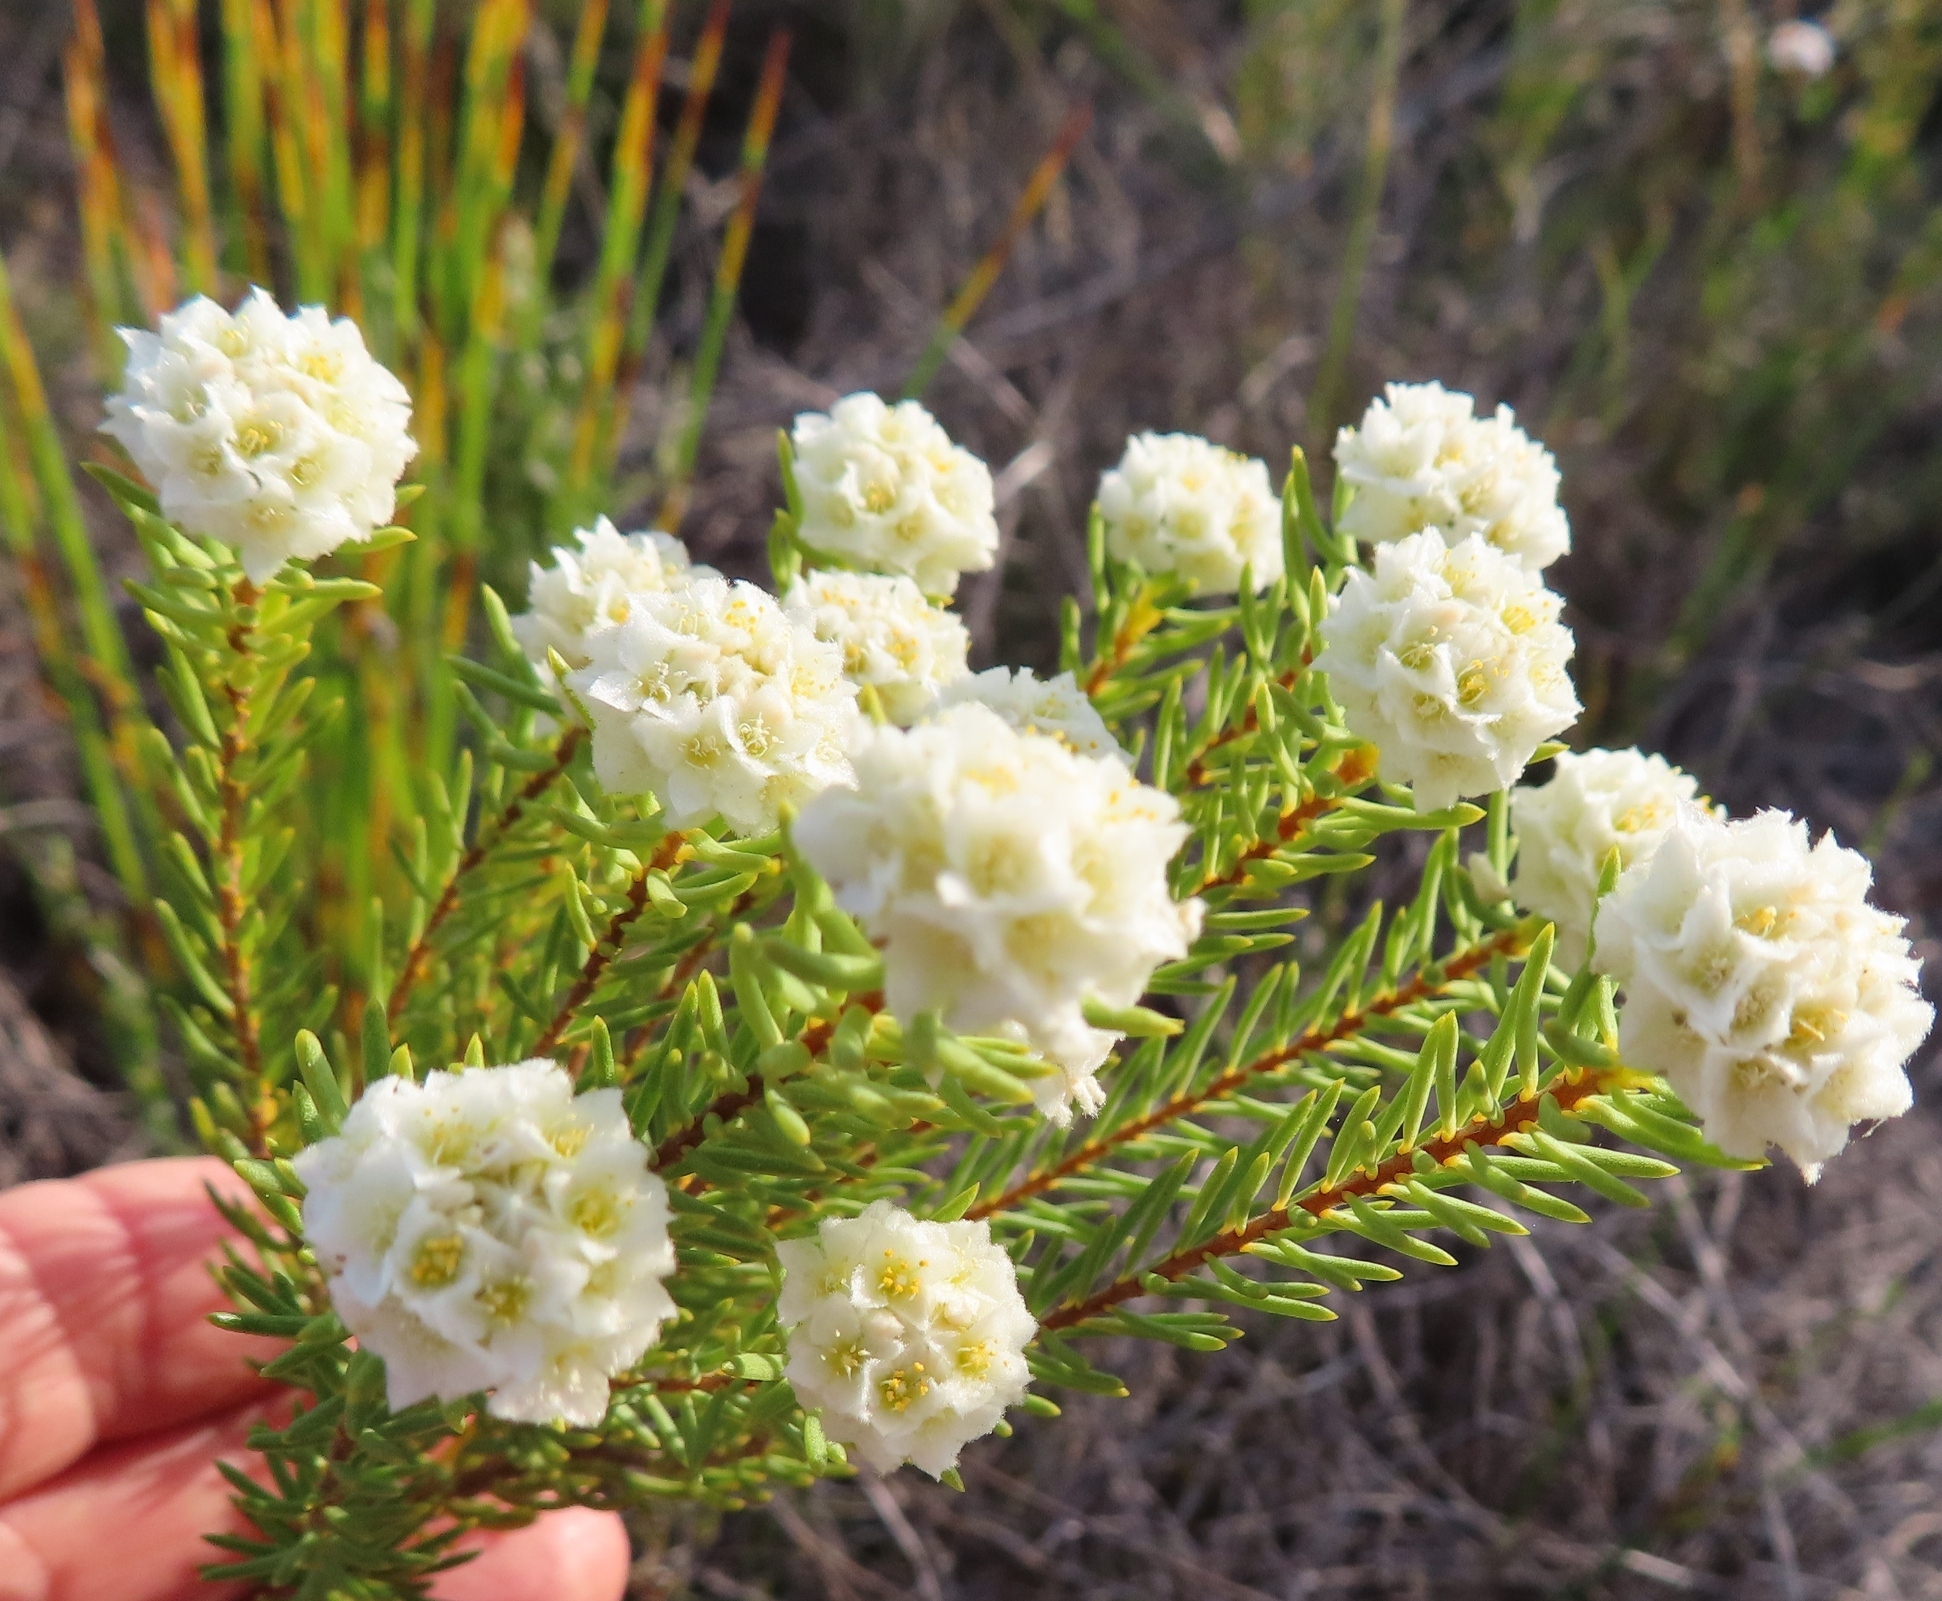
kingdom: Plantae
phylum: Tracheophyta
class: Magnoliopsida
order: Malvales
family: Thymelaeaceae
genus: Lachnaea
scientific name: Lachnaea densiflora
